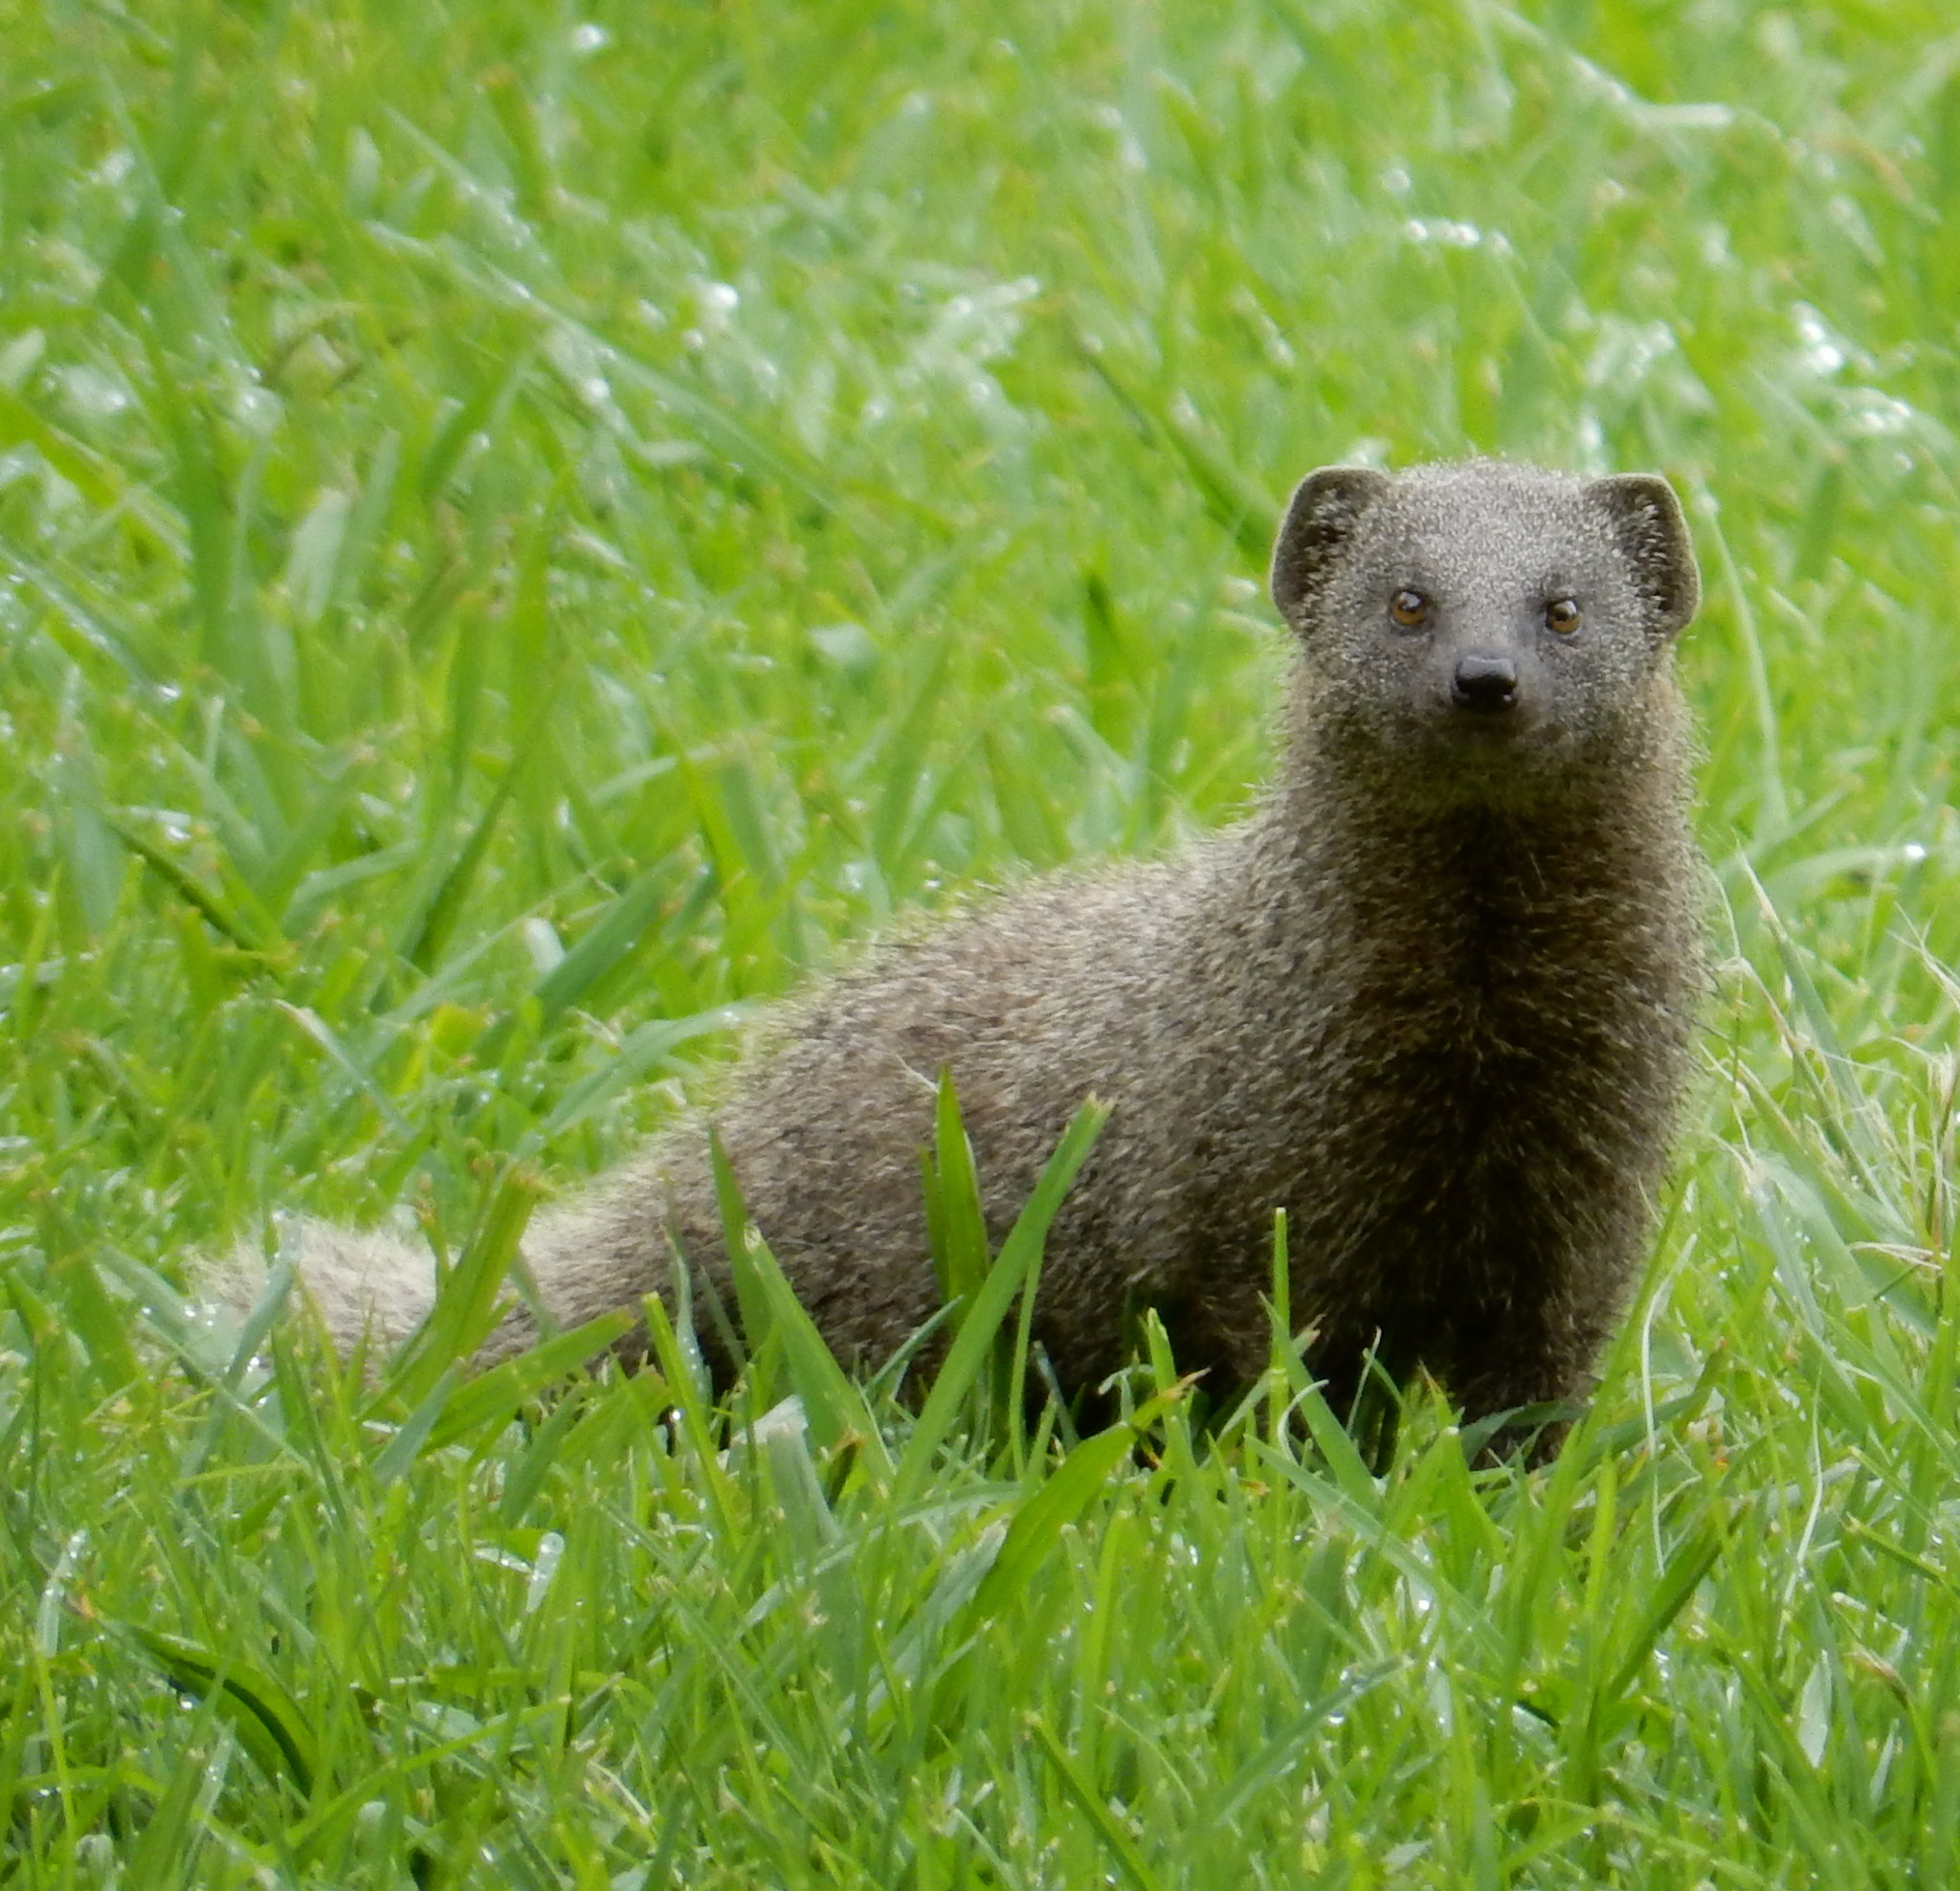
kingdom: Animalia
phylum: Chordata
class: Mammalia
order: Carnivora
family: Herpestidae
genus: Galerella
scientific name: Galerella pulverulenta
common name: Cape gray mongoose
